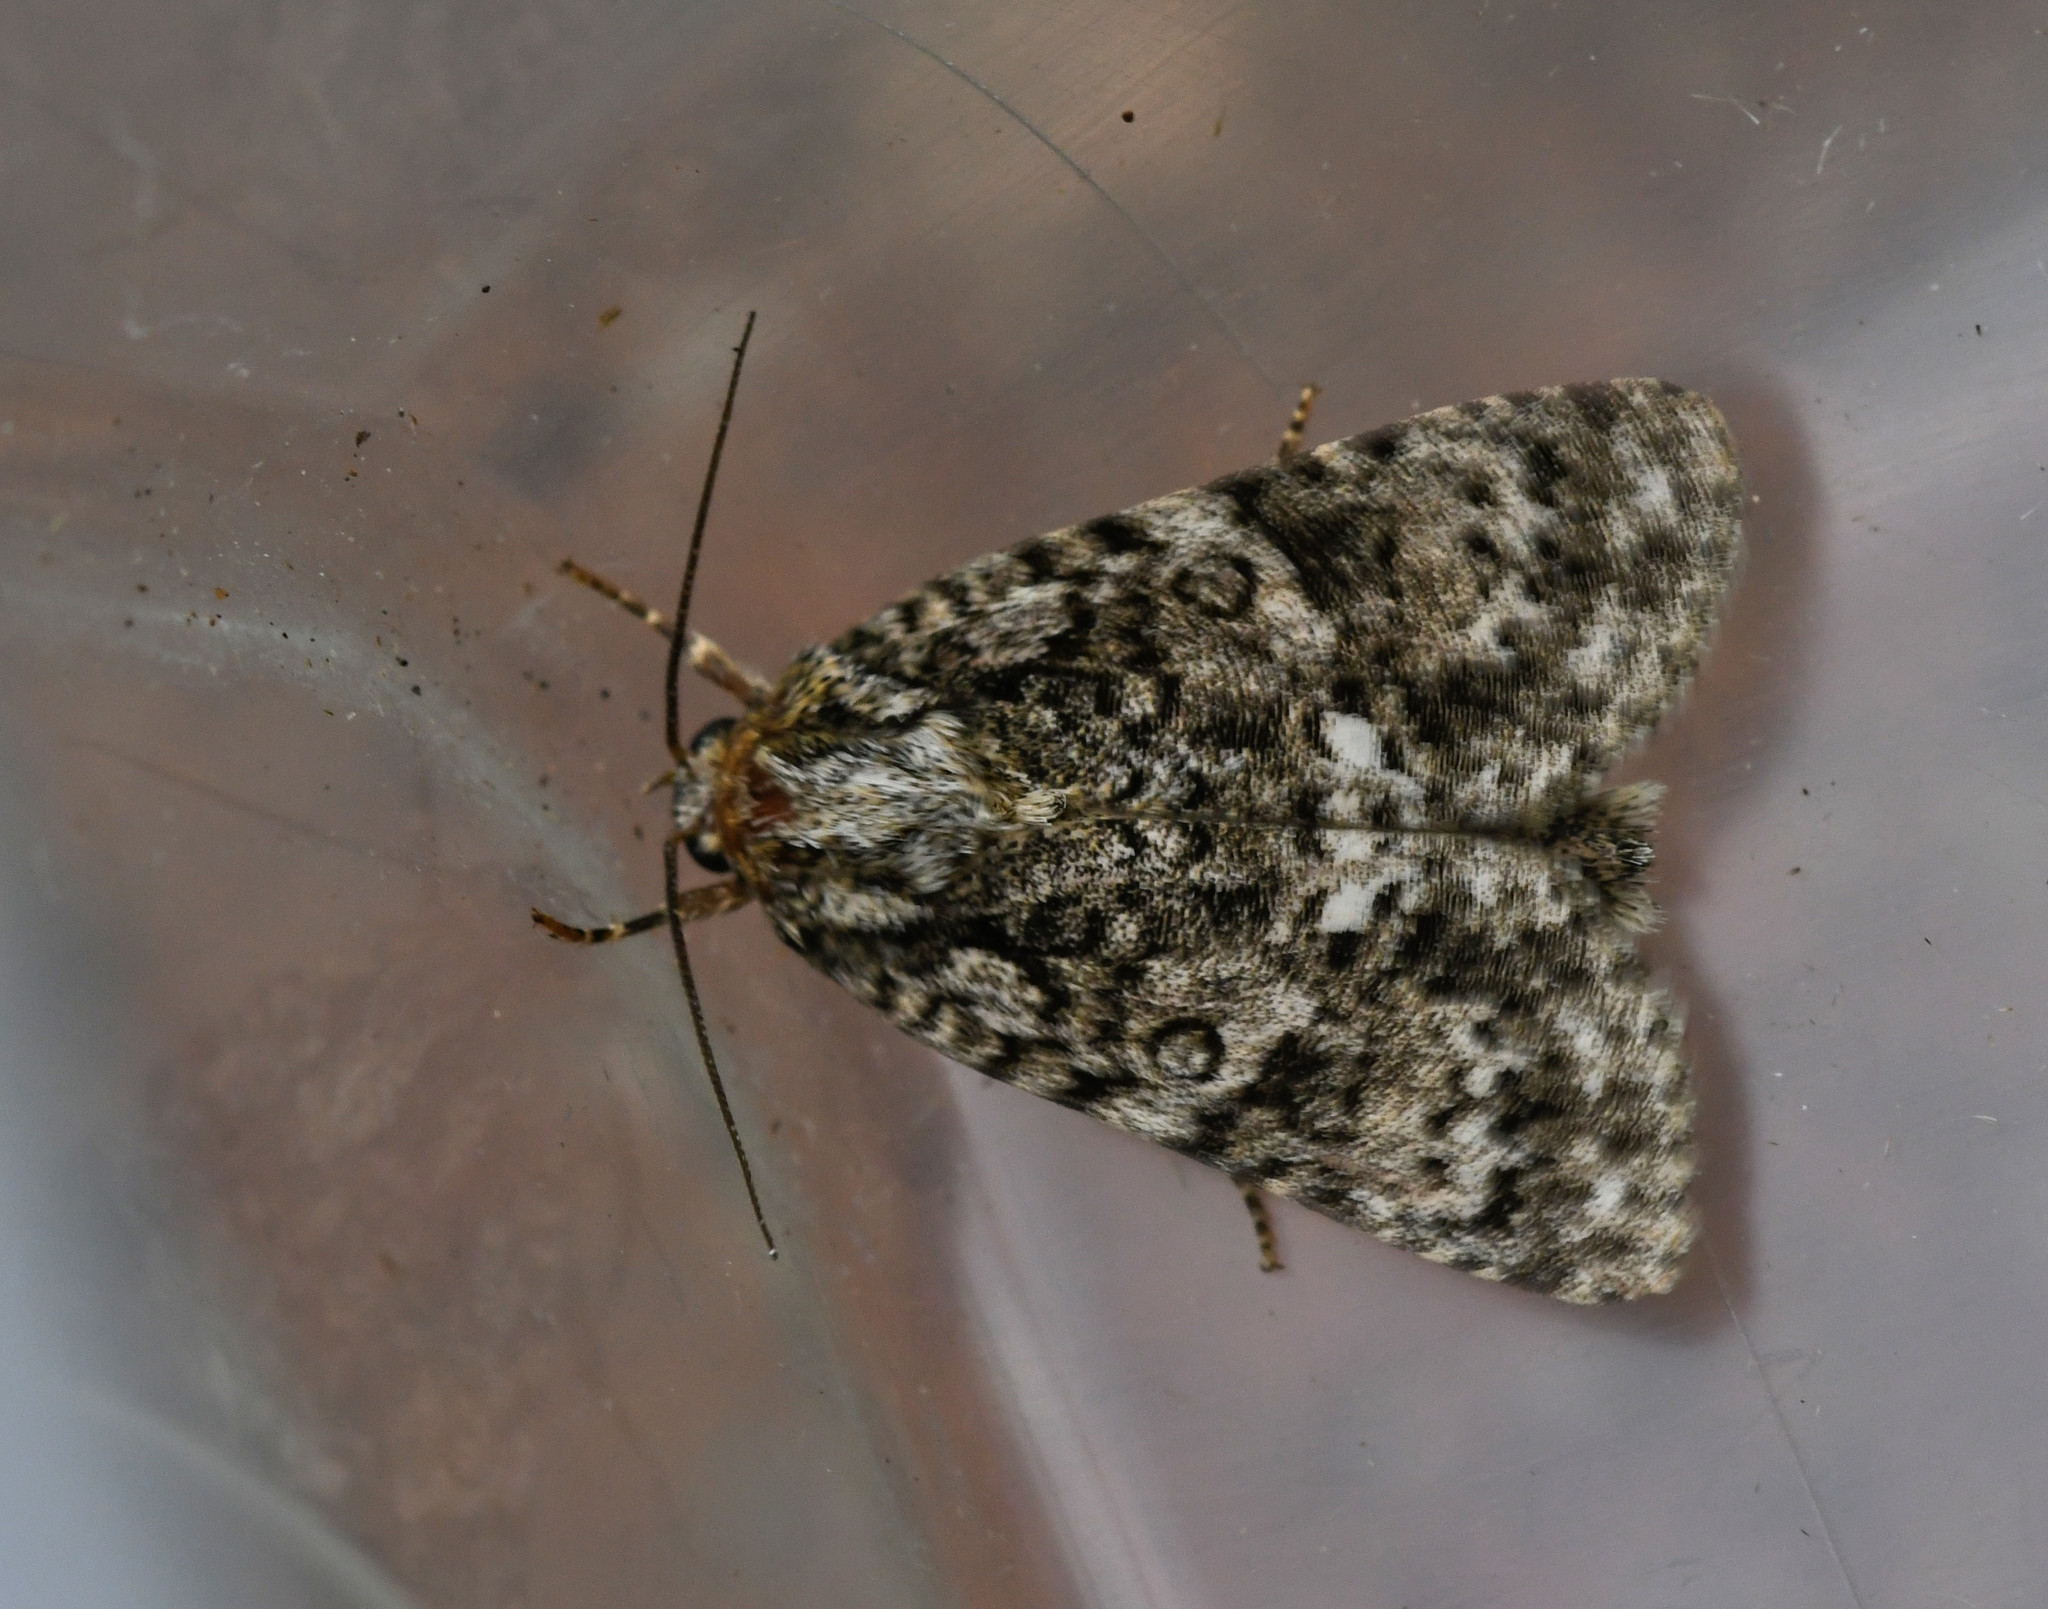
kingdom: Animalia
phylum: Arthropoda
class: Insecta
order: Lepidoptera
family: Noctuidae
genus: Acronicta
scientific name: Acronicta rumicis
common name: Knot grass
